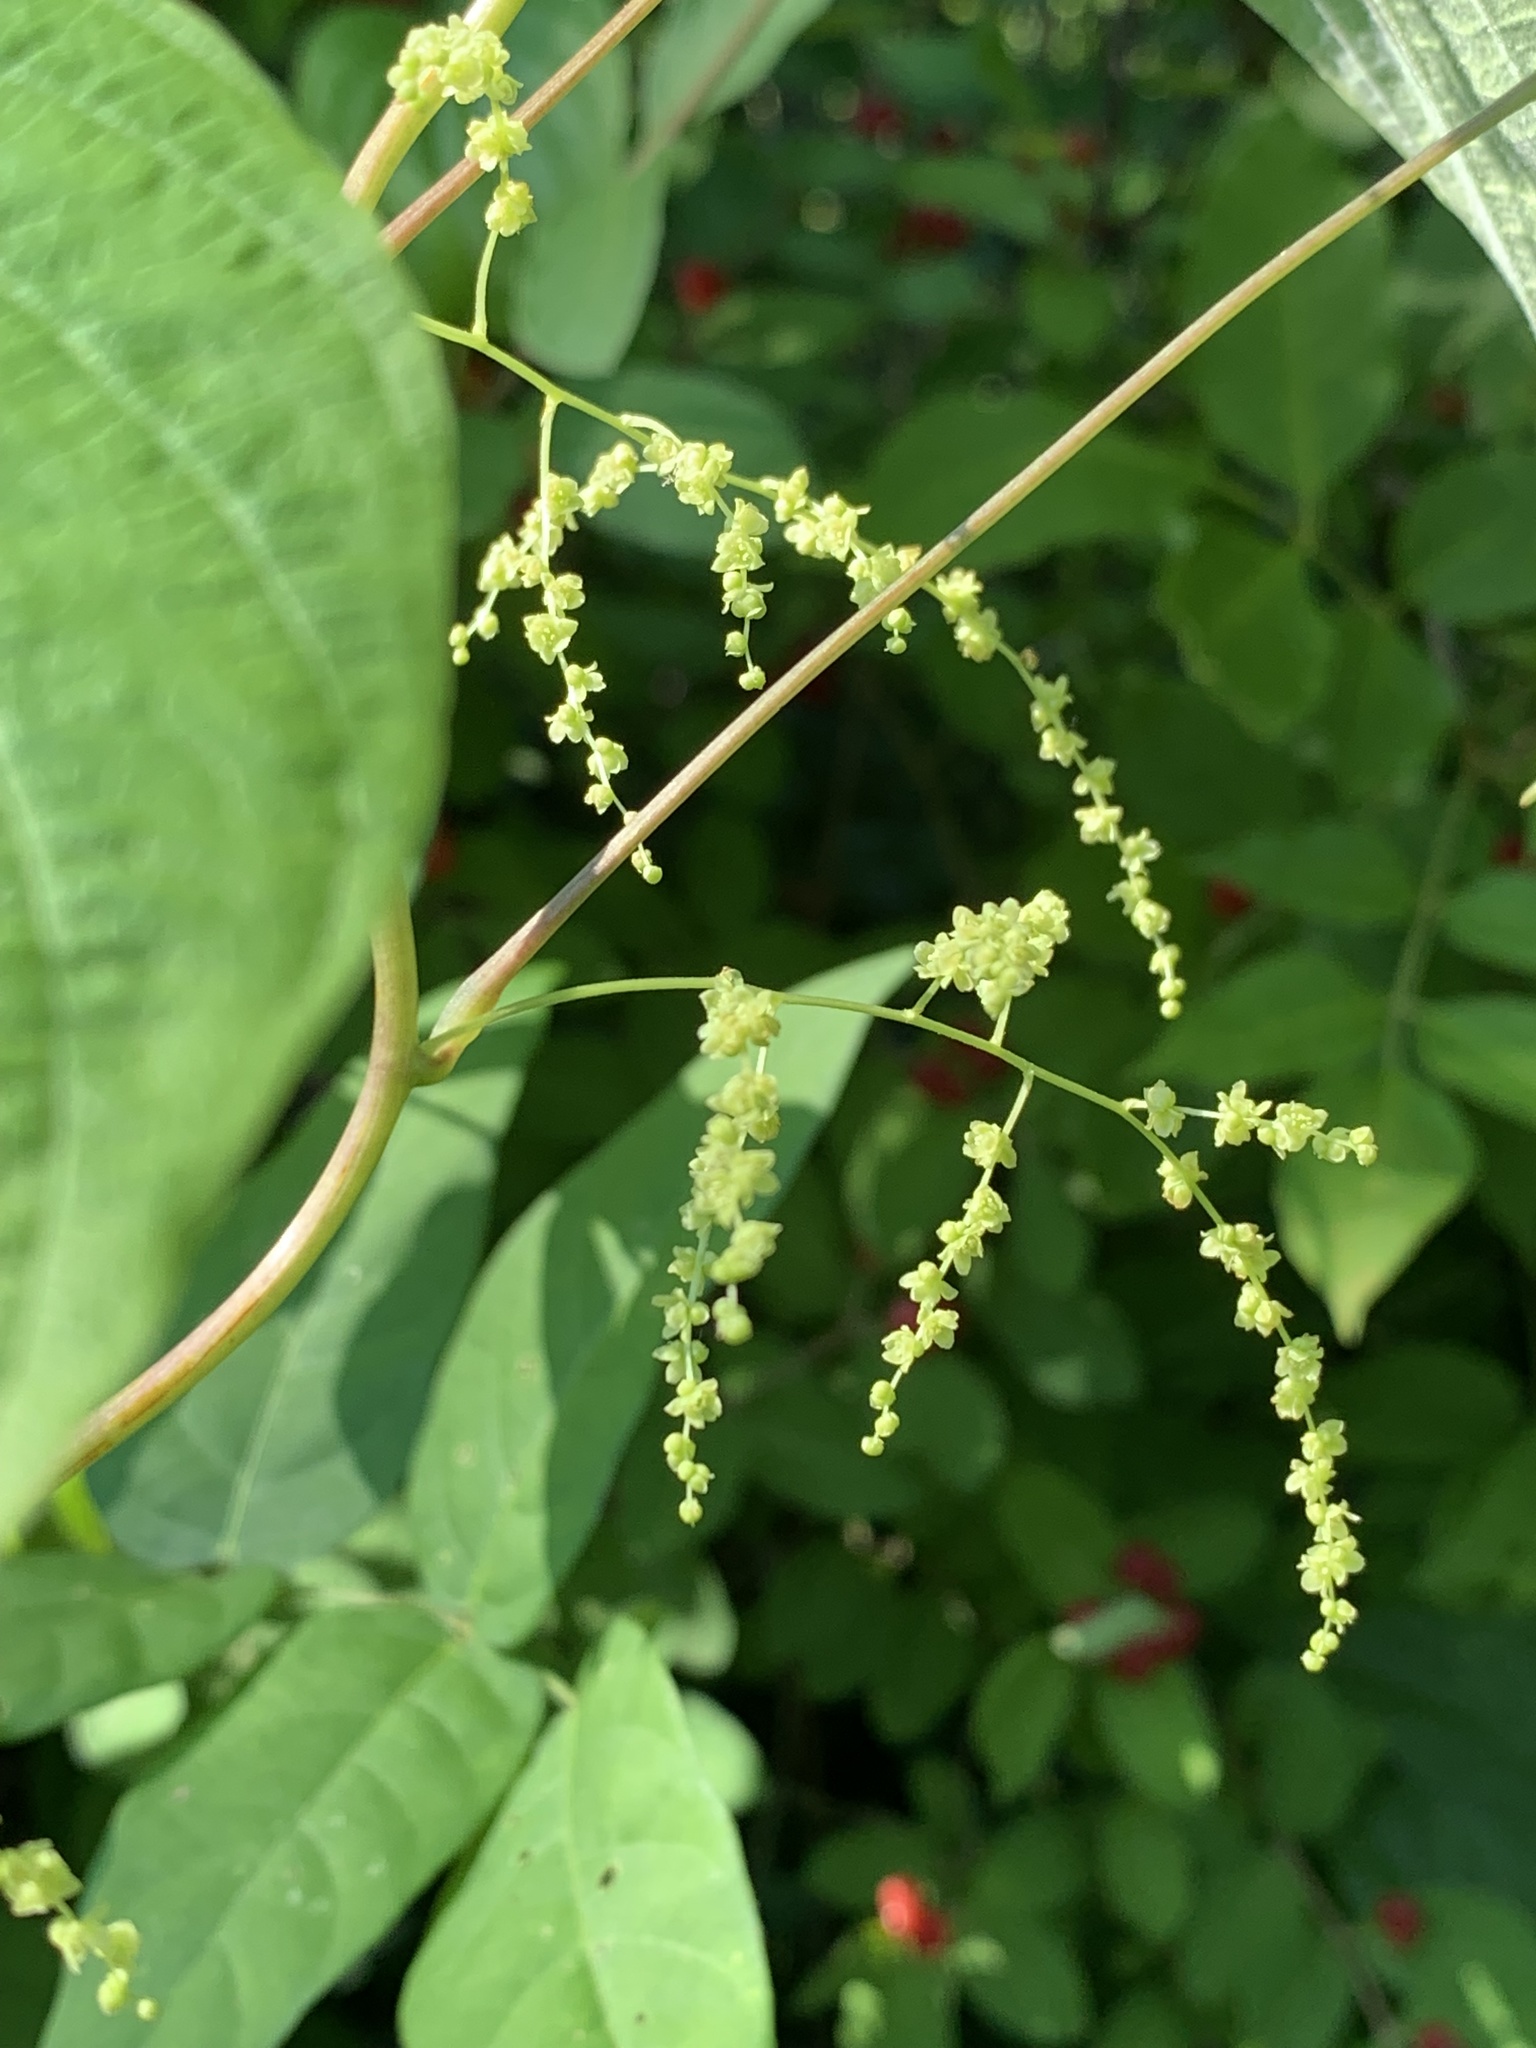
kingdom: Plantae
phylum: Tracheophyta
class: Liliopsida
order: Dioscoreales
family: Dioscoreaceae
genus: Dioscorea
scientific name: Dioscorea villosa
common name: Wild yam
